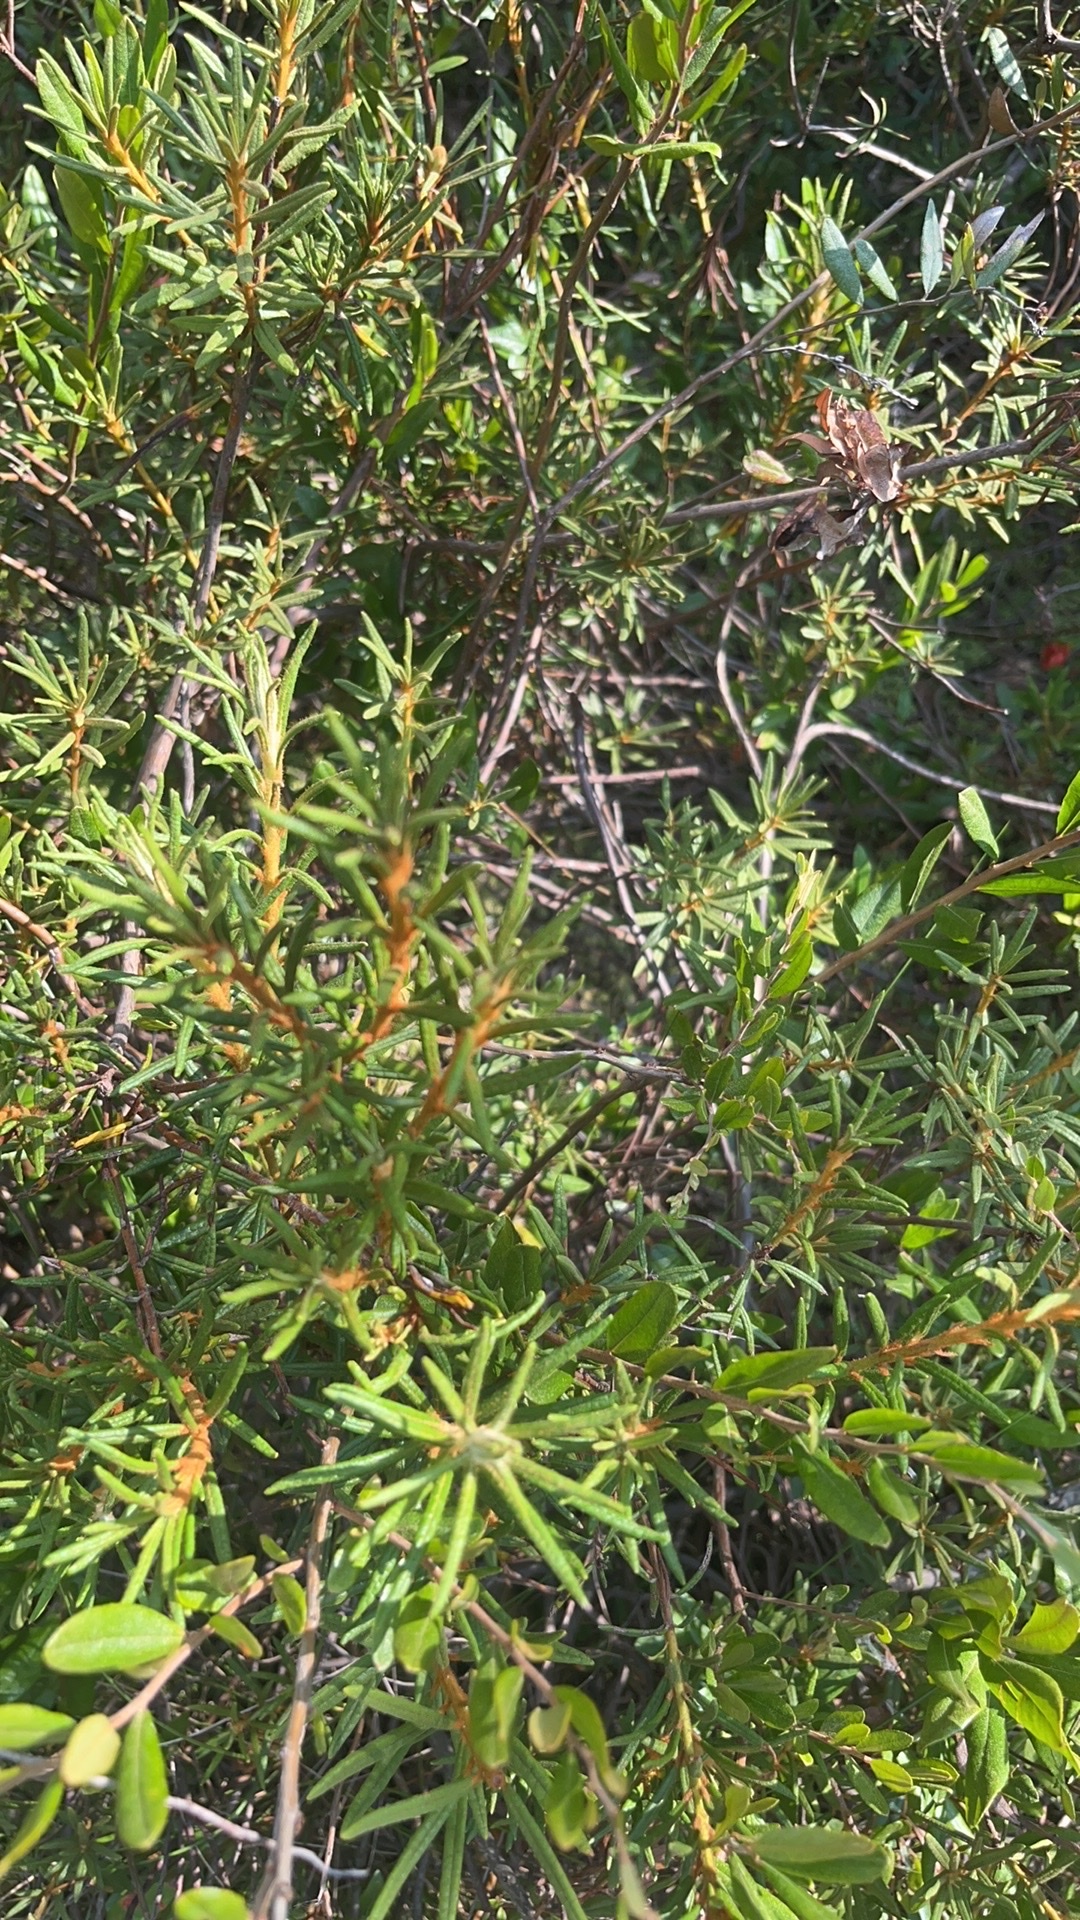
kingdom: Plantae
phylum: Tracheophyta
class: Magnoliopsida
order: Ericales
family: Ericaceae
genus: Rhododendron
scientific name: Rhododendron tomentosum
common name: Marsh labrador tea
